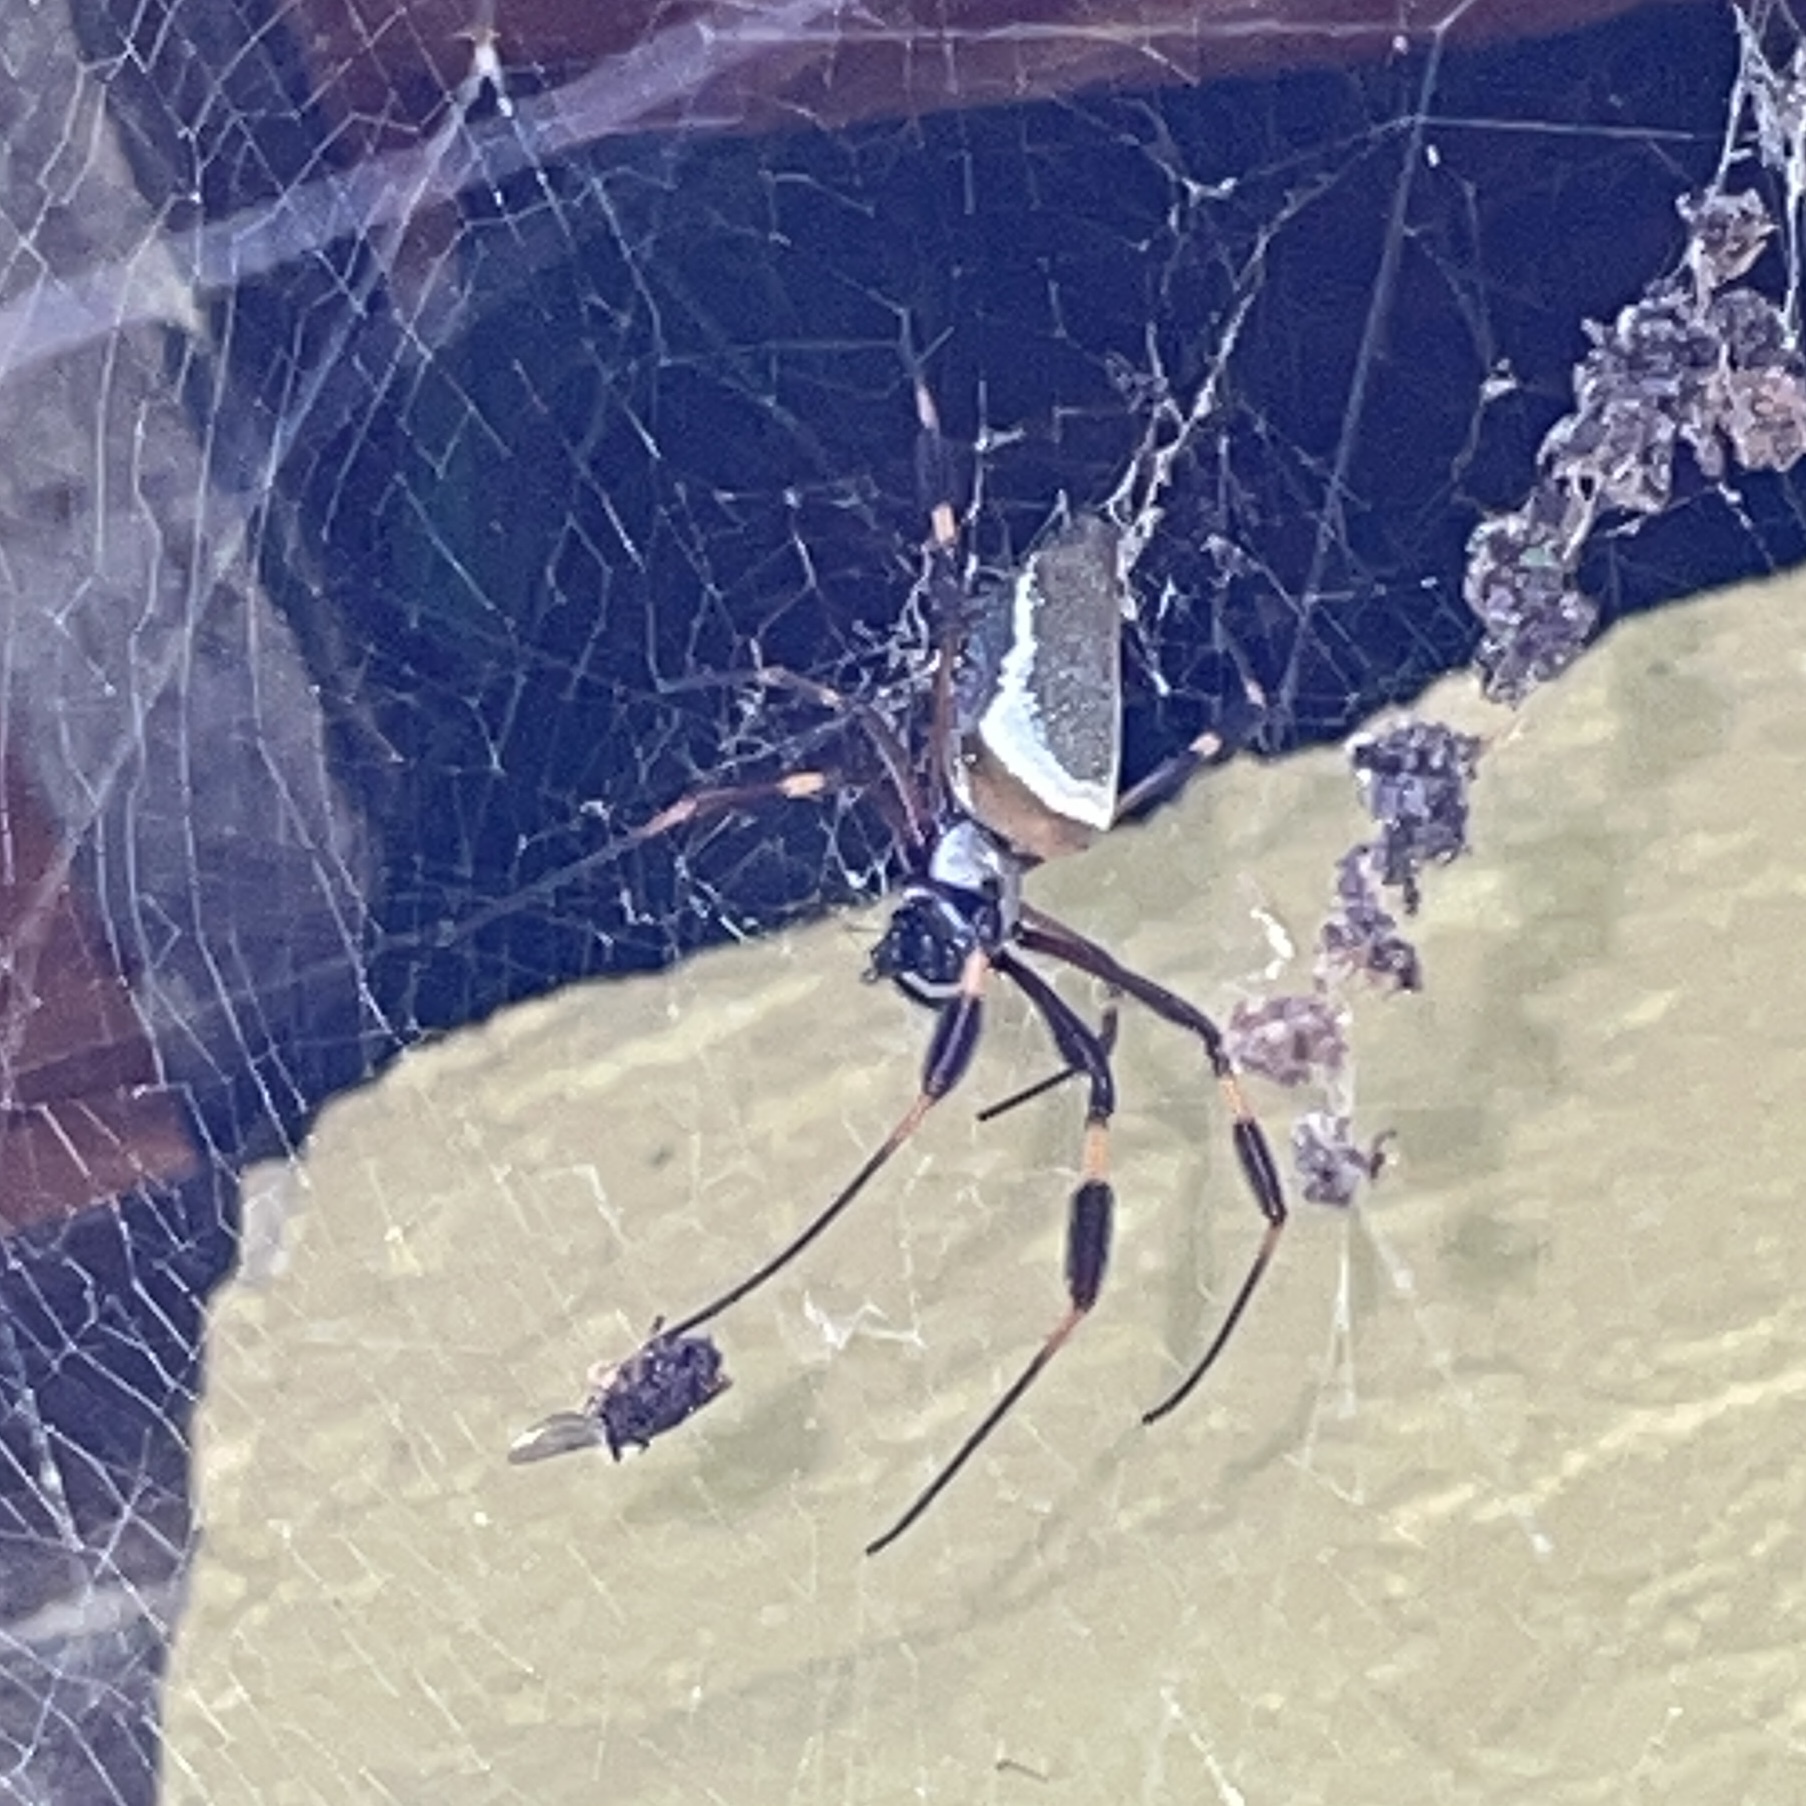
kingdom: Animalia
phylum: Arthropoda
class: Arachnida
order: Araneae
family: Araneidae
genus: Trichonephila
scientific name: Trichonephila clavipes
